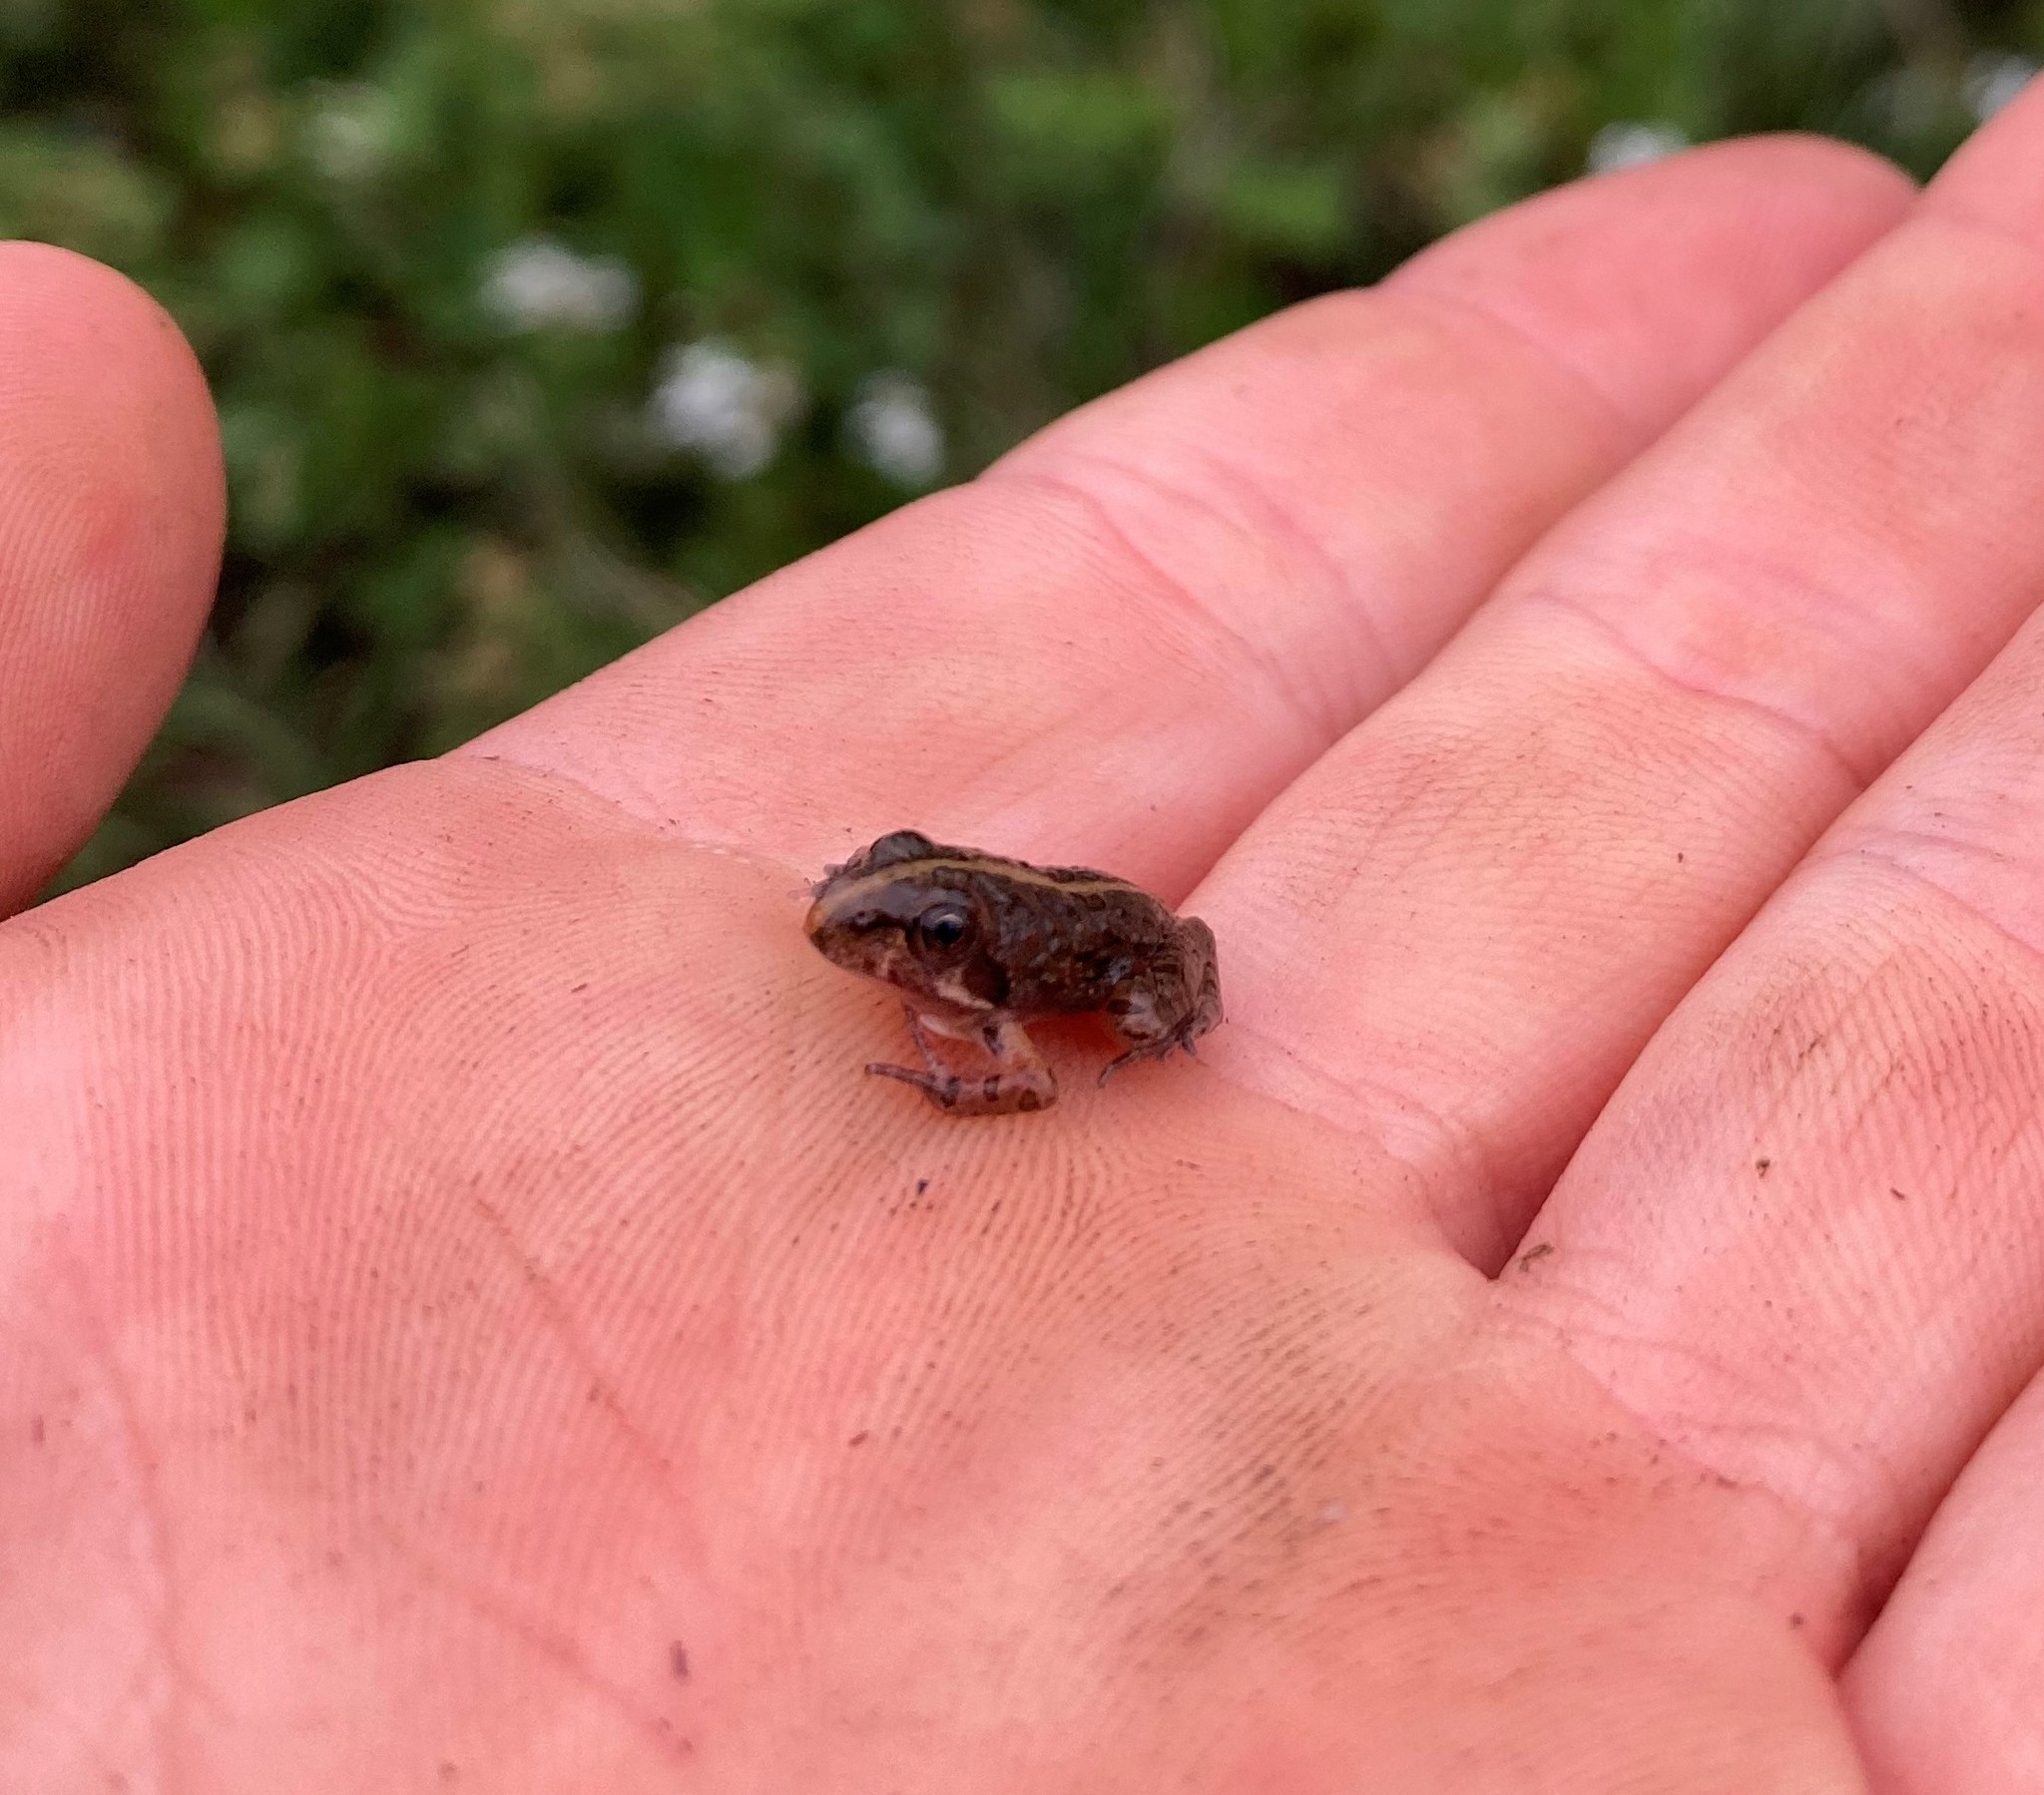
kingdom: Animalia
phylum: Chordata
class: Amphibia
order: Anura
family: Pyxicephalidae
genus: Amietia
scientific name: Amietia delalandii
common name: Delalande's river frog
